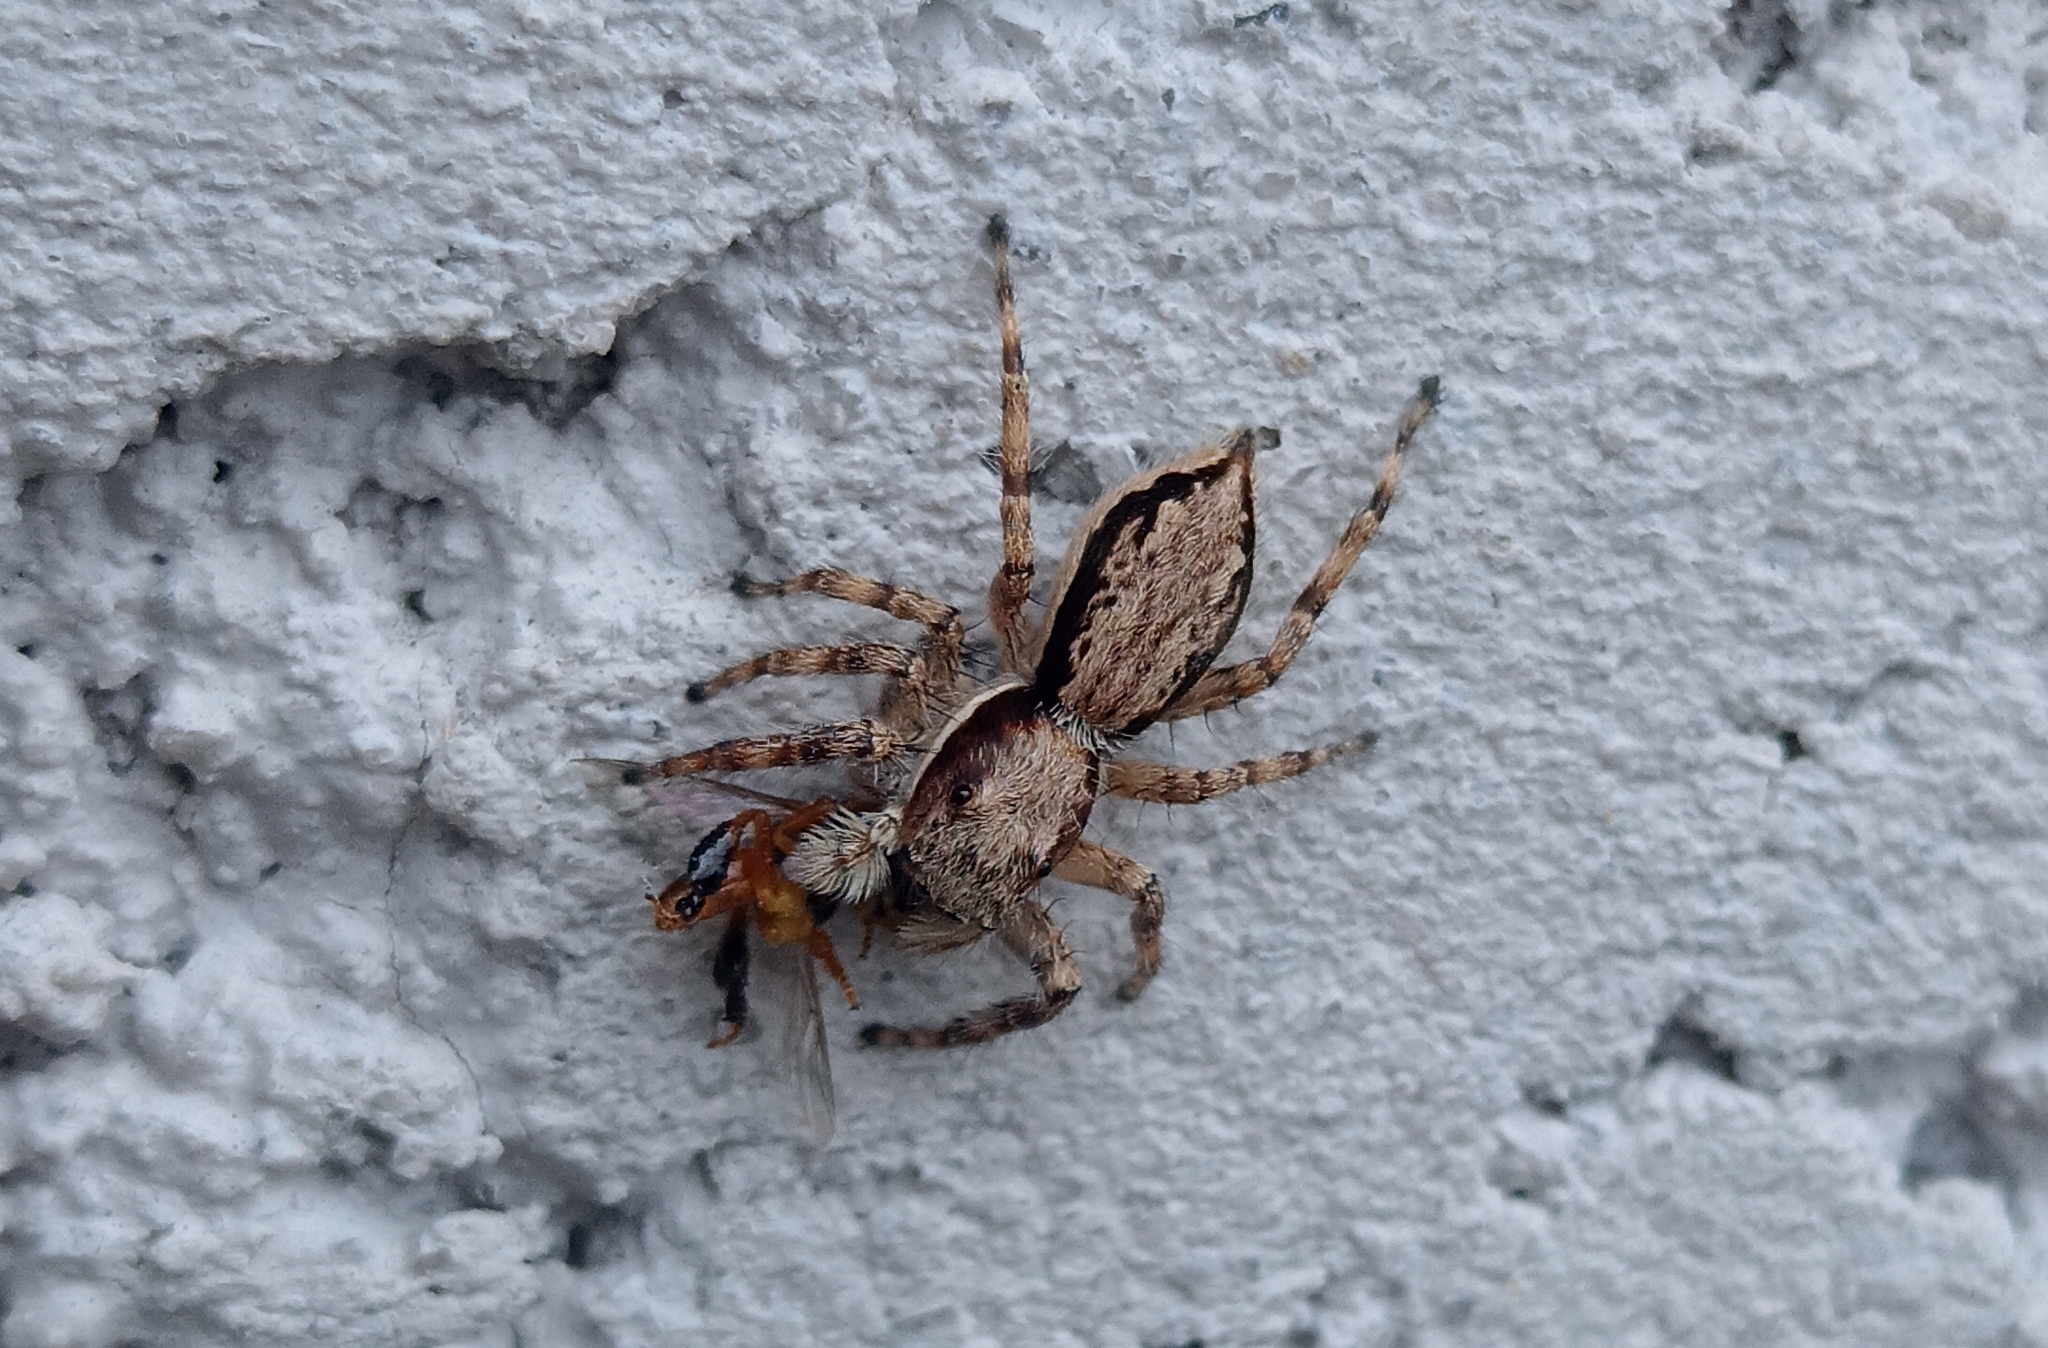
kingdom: Animalia
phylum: Arthropoda
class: Arachnida
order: Araneae
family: Salticidae
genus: Menemerus
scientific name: Menemerus bivittatus
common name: Gray wall jumper
